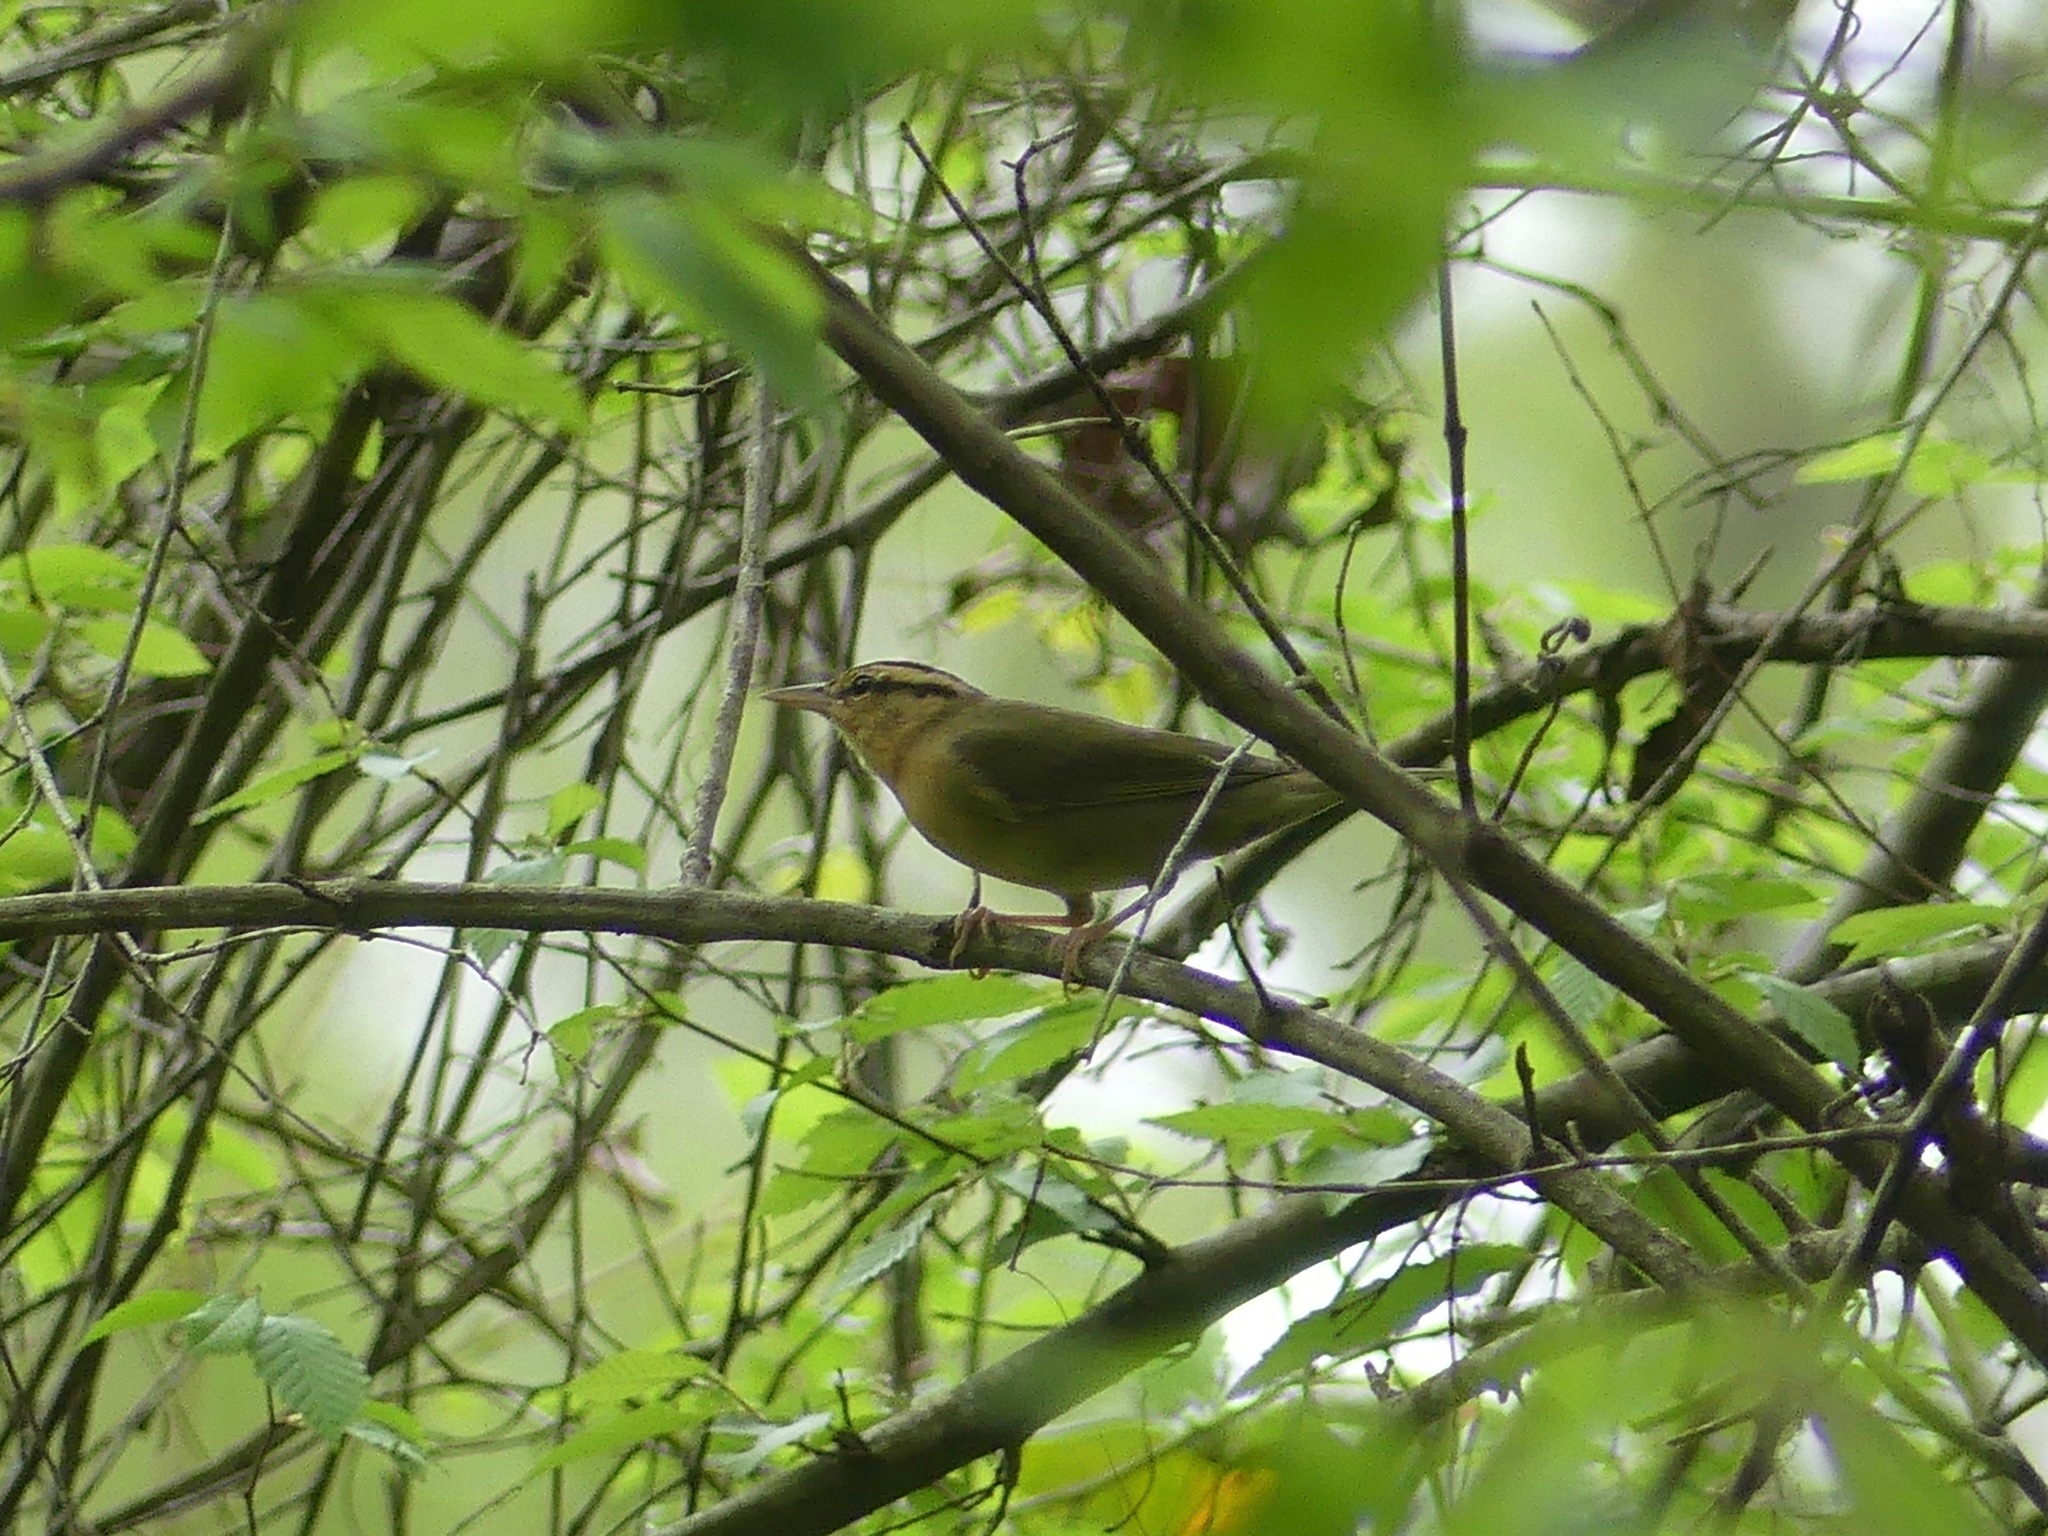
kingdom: Animalia
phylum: Chordata
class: Aves
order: Passeriformes
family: Parulidae
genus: Helmitheros
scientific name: Helmitheros vermivorum
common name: Worm-eating warbler
